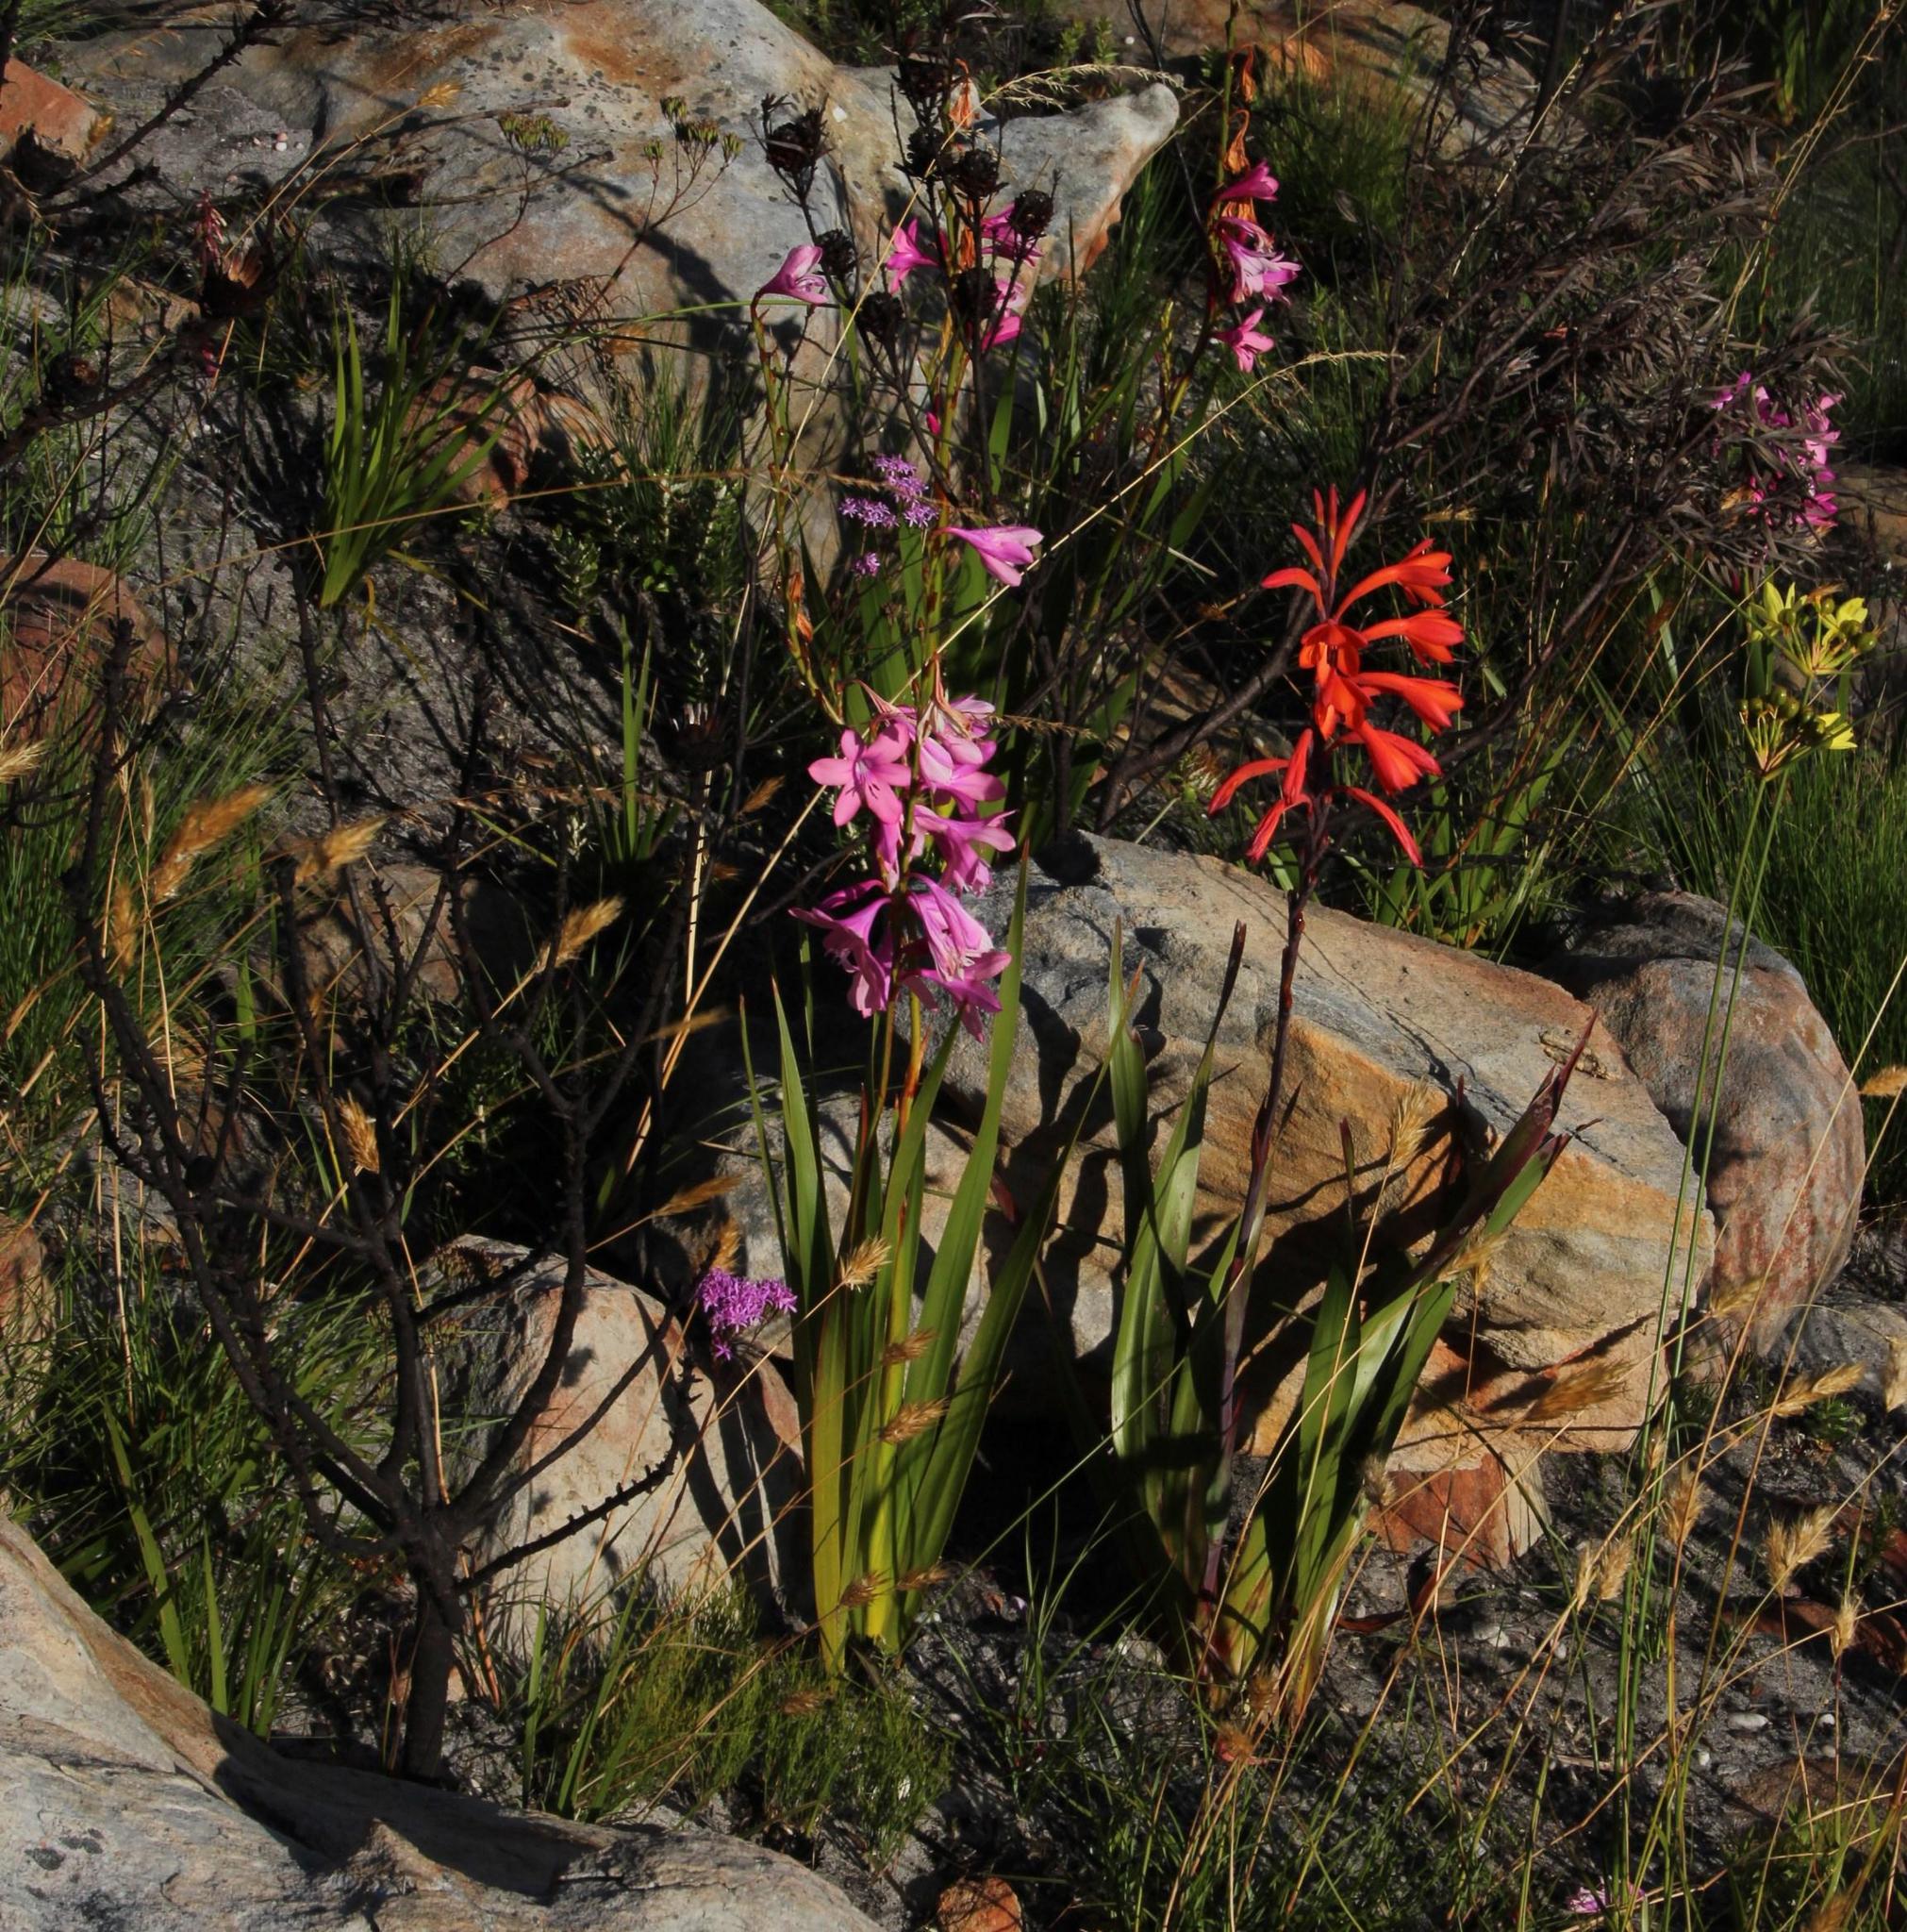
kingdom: Plantae
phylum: Tracheophyta
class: Liliopsida
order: Asparagales
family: Iridaceae
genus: Watsonia
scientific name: Watsonia borbonica
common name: Bugle-lily
